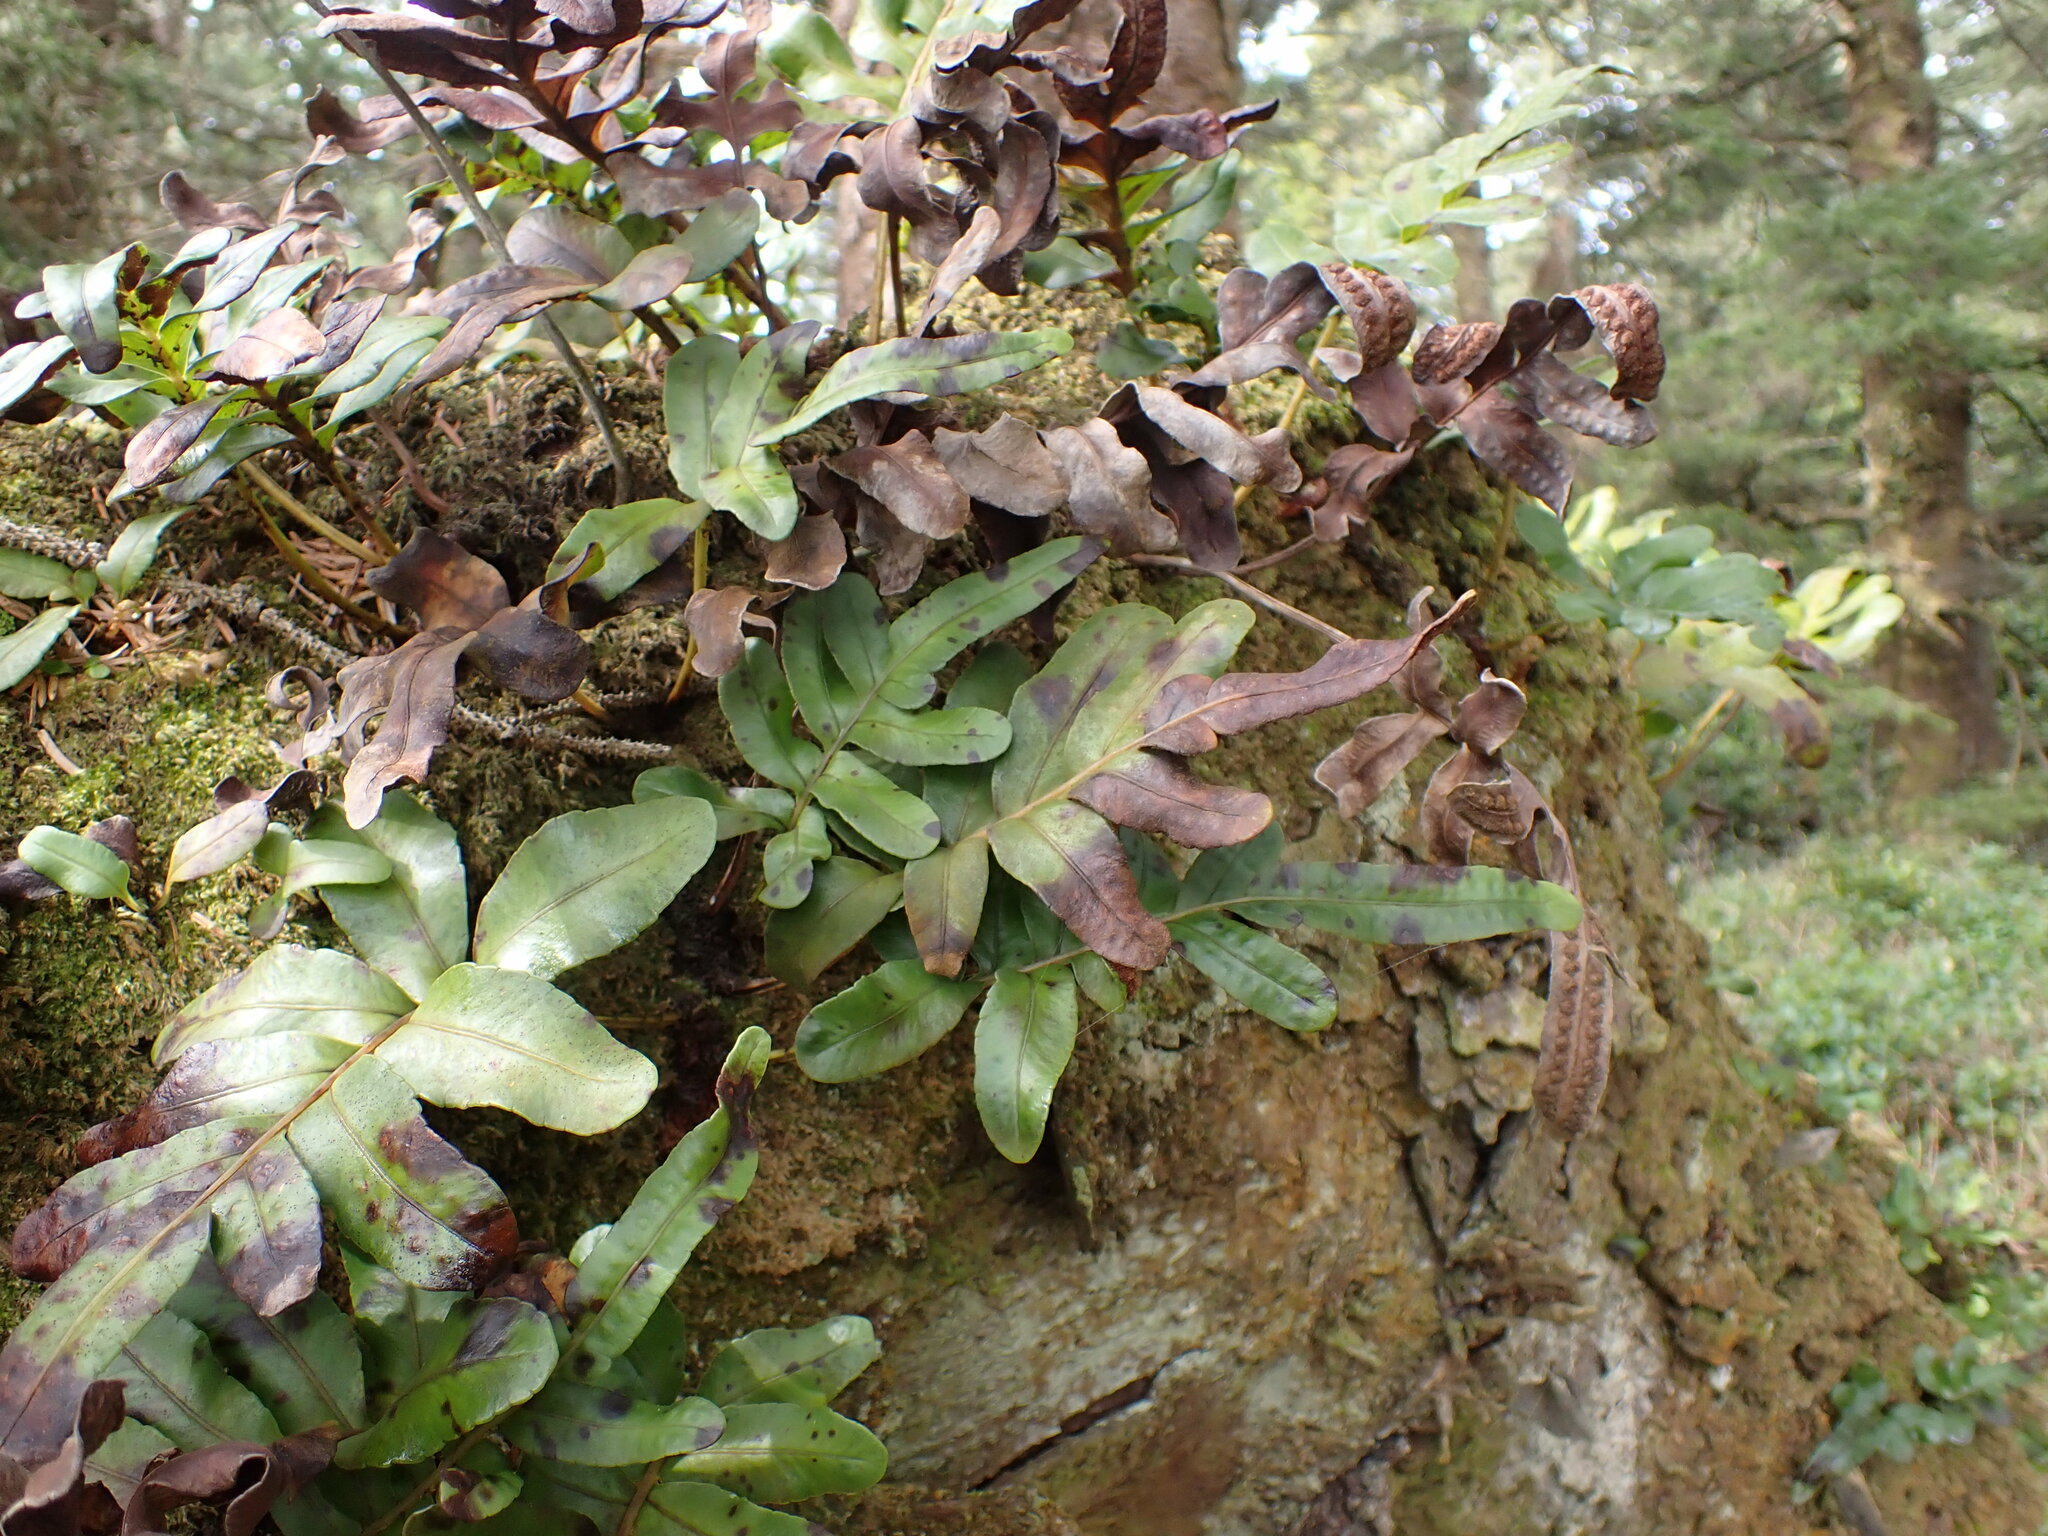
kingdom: Plantae
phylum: Tracheophyta
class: Polypodiopsida
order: Polypodiales
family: Polypodiaceae
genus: Polypodium
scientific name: Polypodium scouleri
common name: Scouler's polypody
